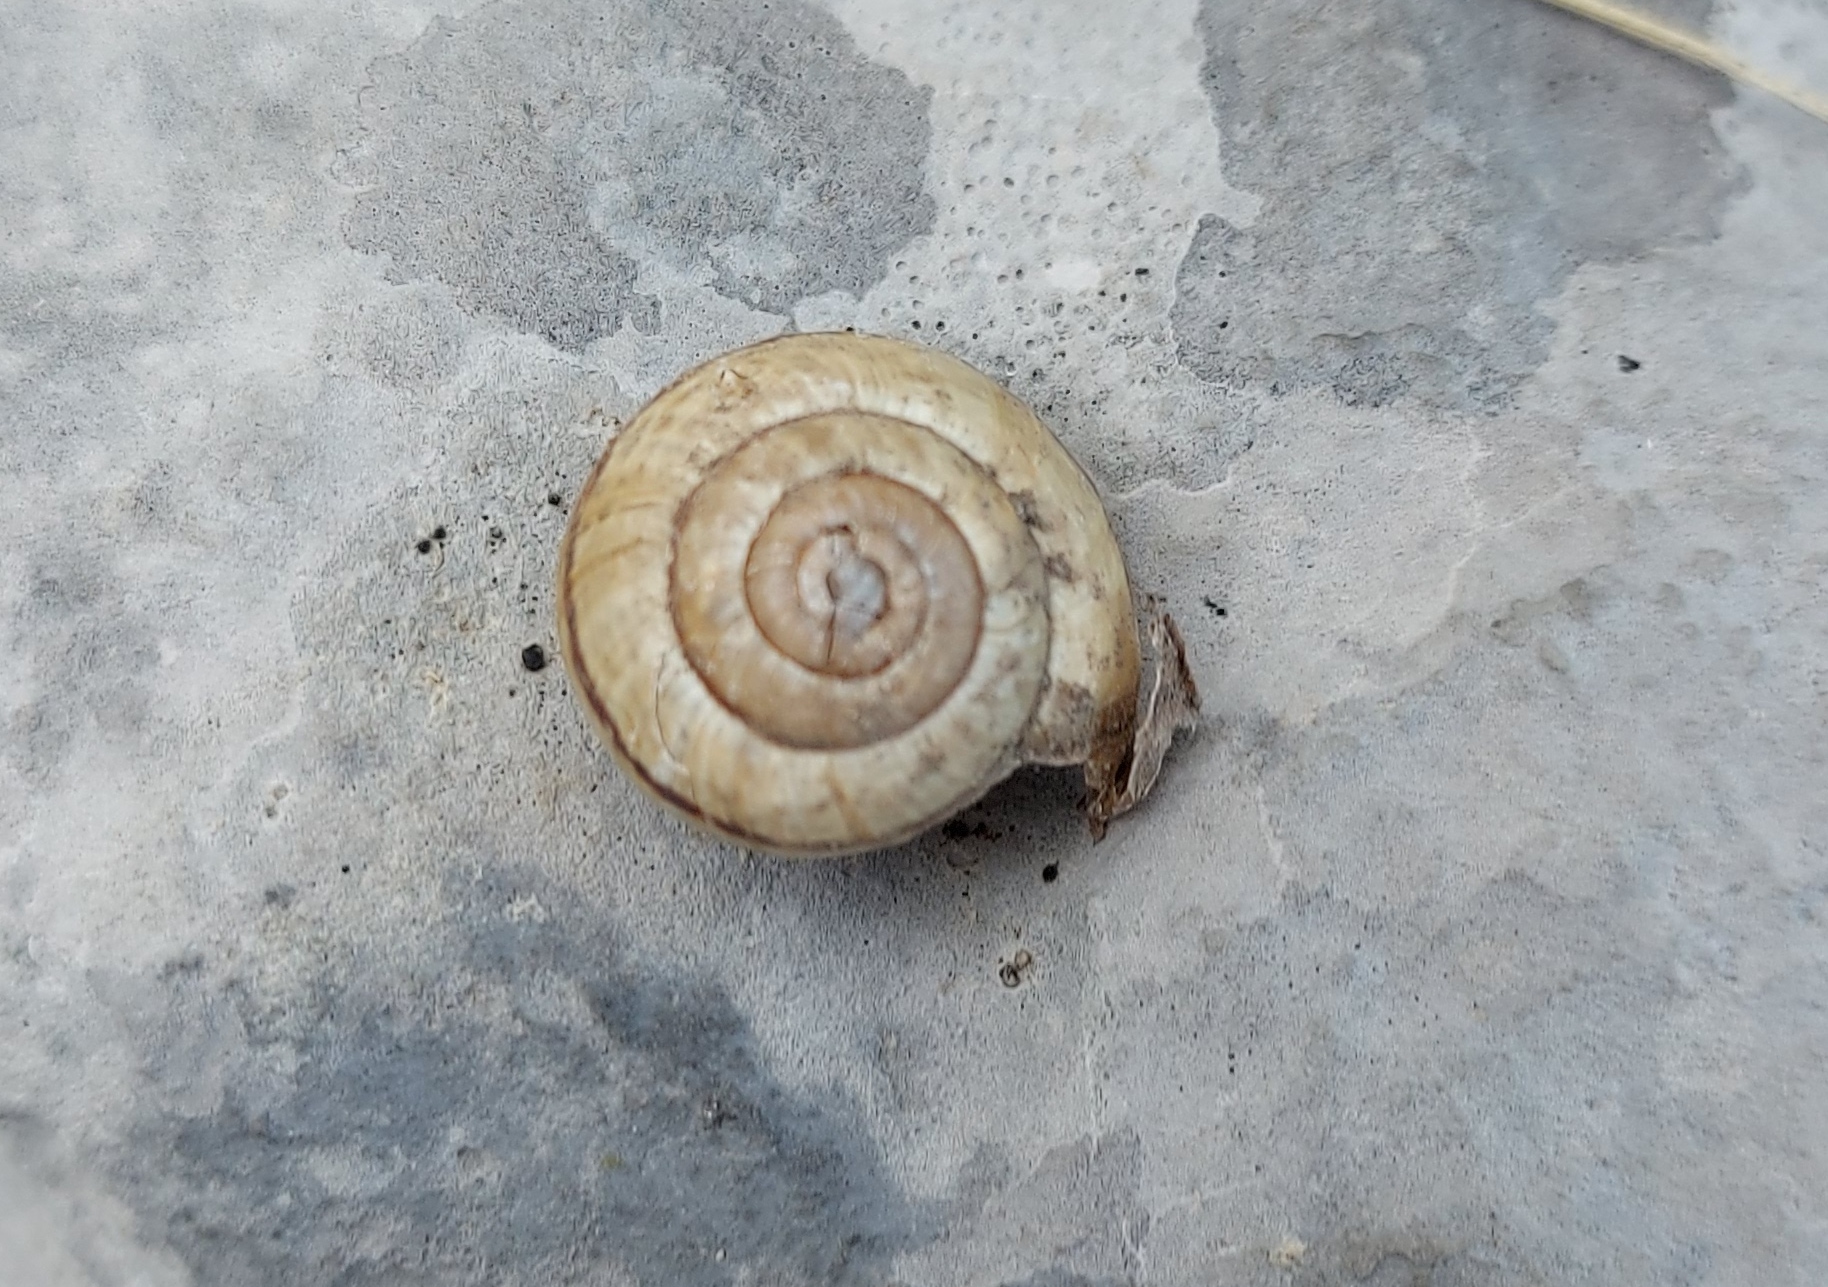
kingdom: Animalia
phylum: Mollusca
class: Gastropoda
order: Stylommatophora
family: Helicidae
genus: Arianta
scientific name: Arianta arbustorum
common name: Copse snail
